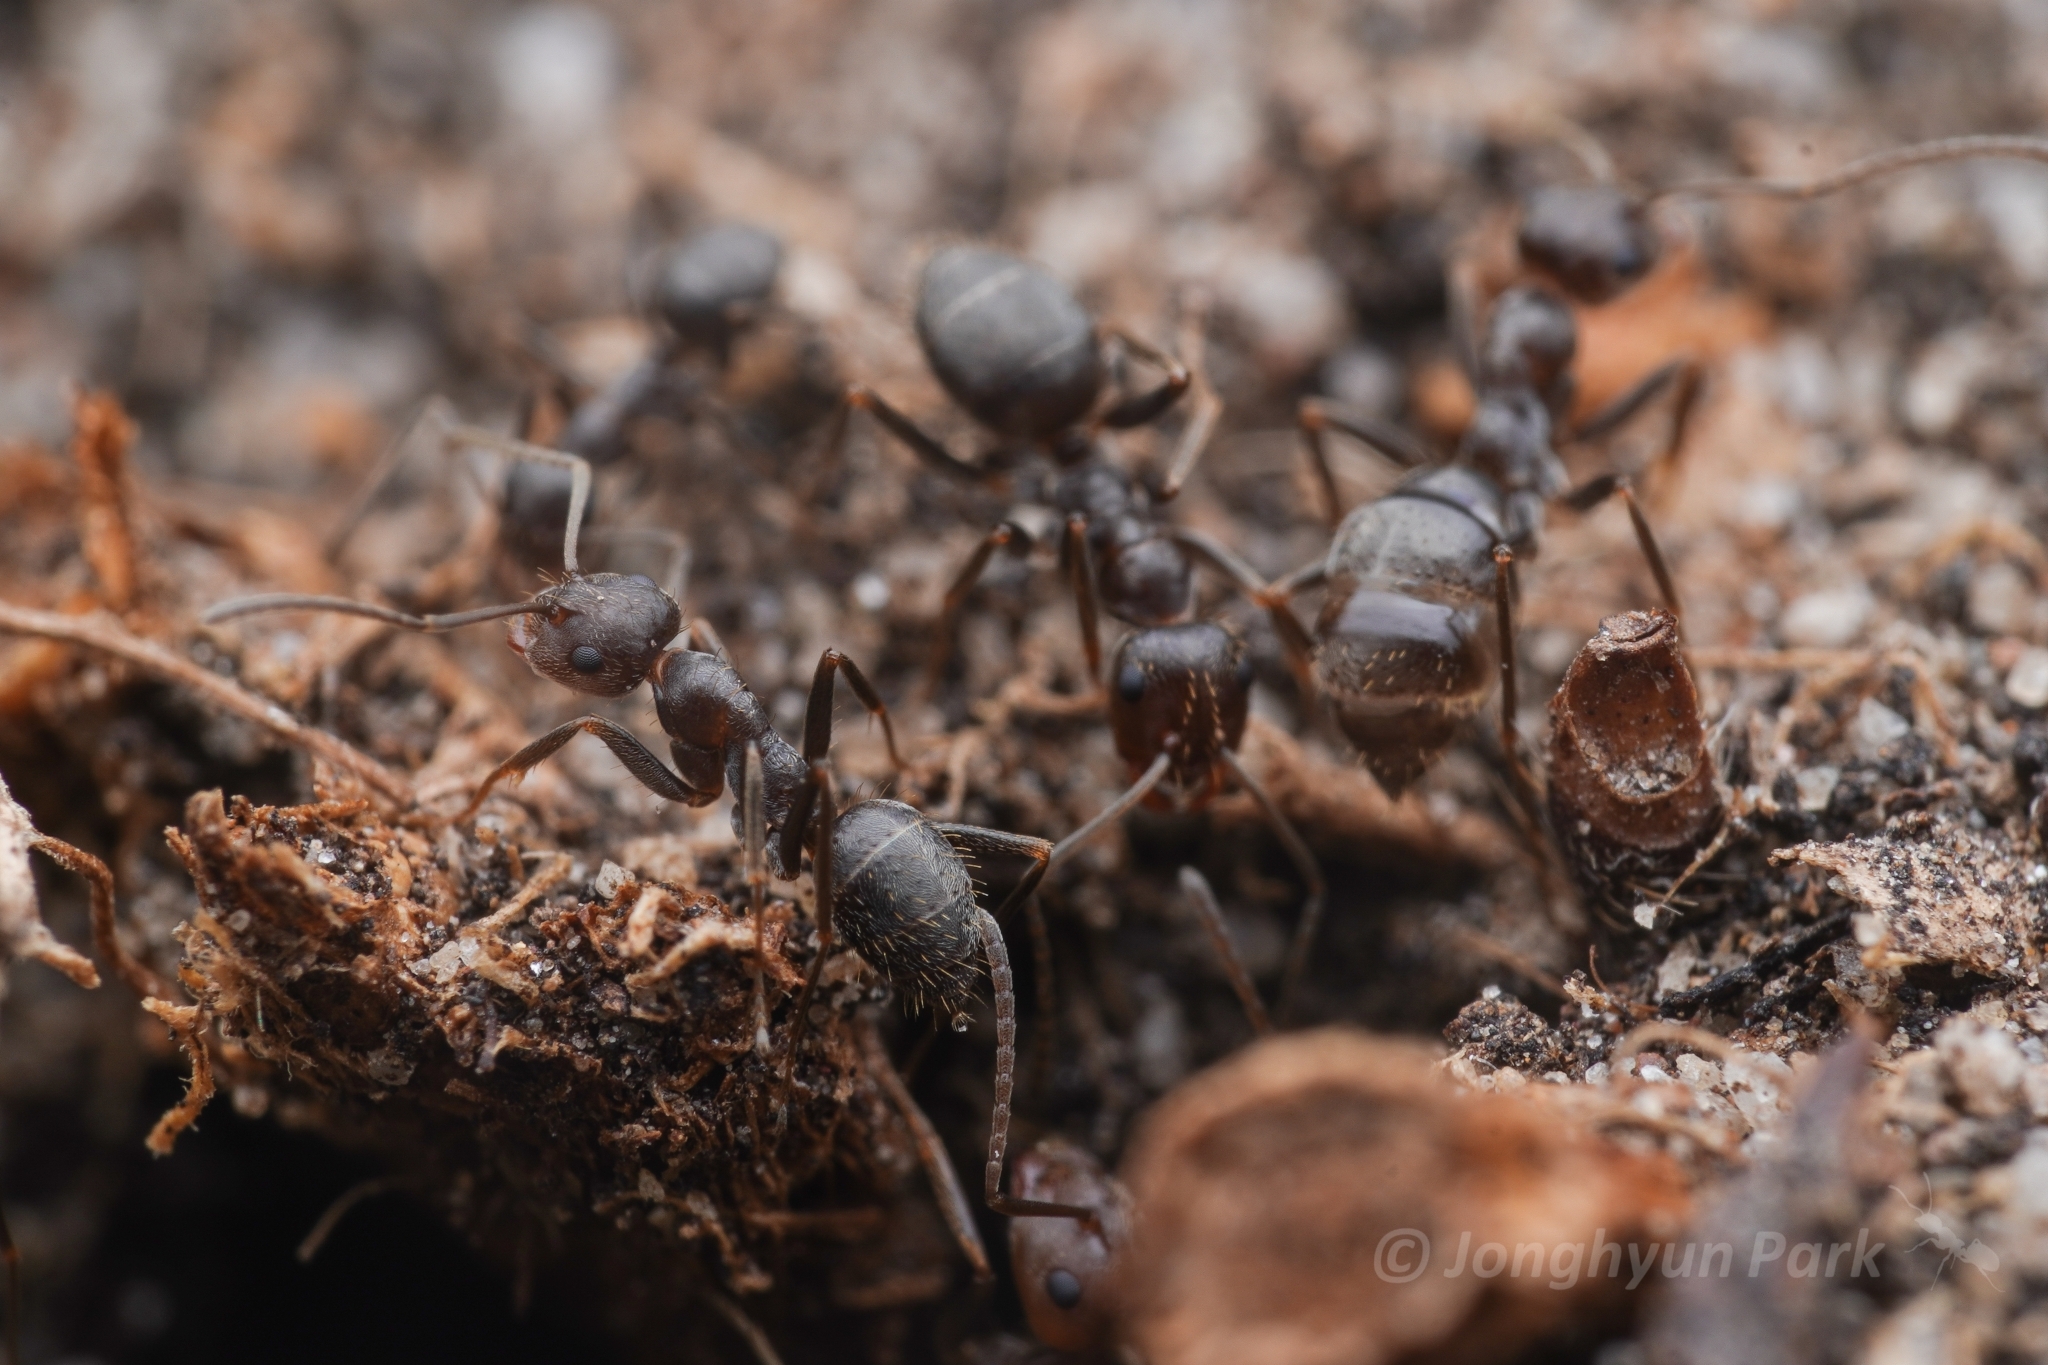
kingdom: Animalia
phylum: Arthropoda
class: Insecta
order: Hymenoptera
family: Formicidae
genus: Anoplolepis
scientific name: Anoplolepis fallax
